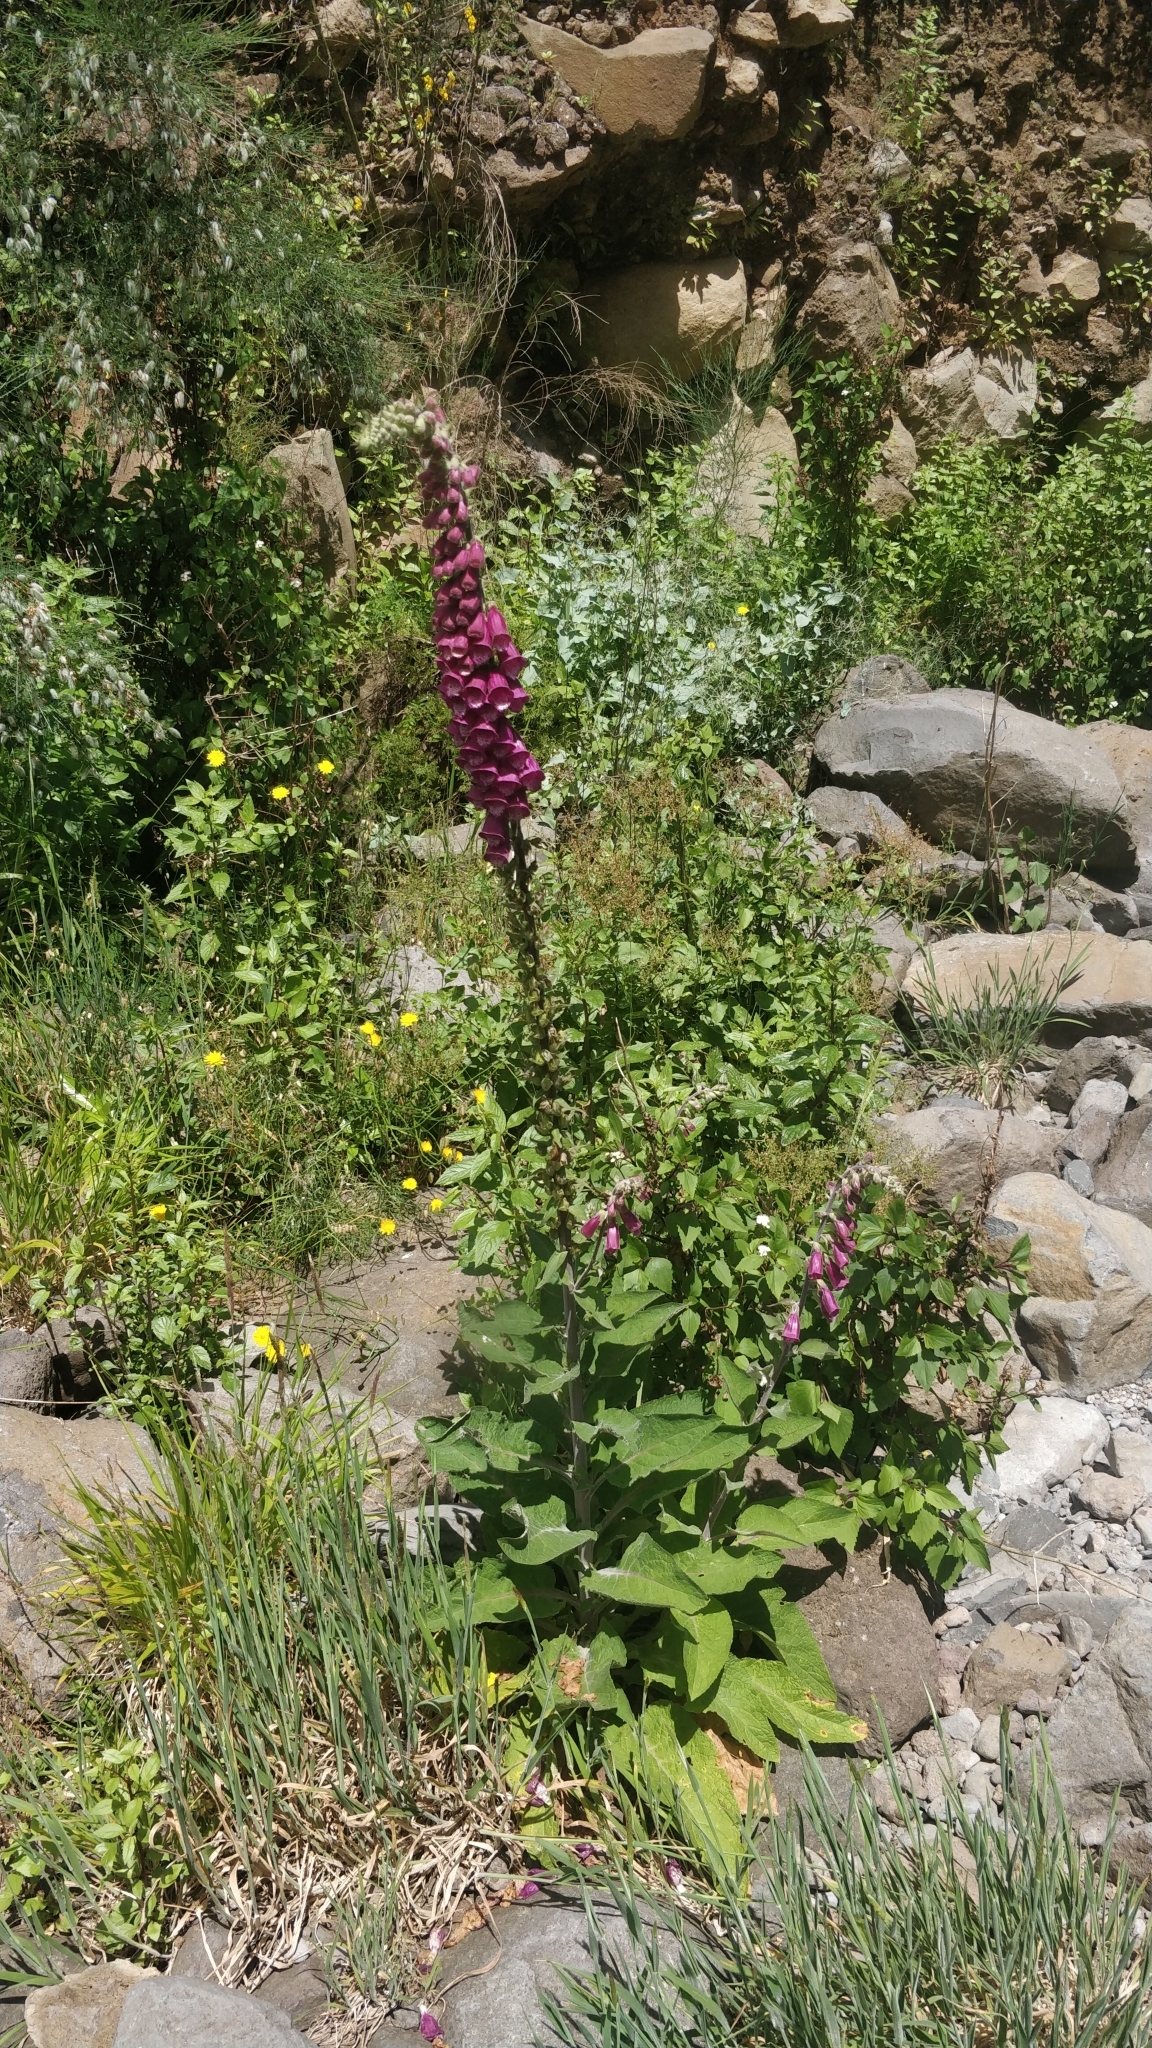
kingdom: Plantae
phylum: Tracheophyta
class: Magnoliopsida
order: Lamiales
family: Plantaginaceae
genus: Digitalis
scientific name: Digitalis purpurea
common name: Foxglove
